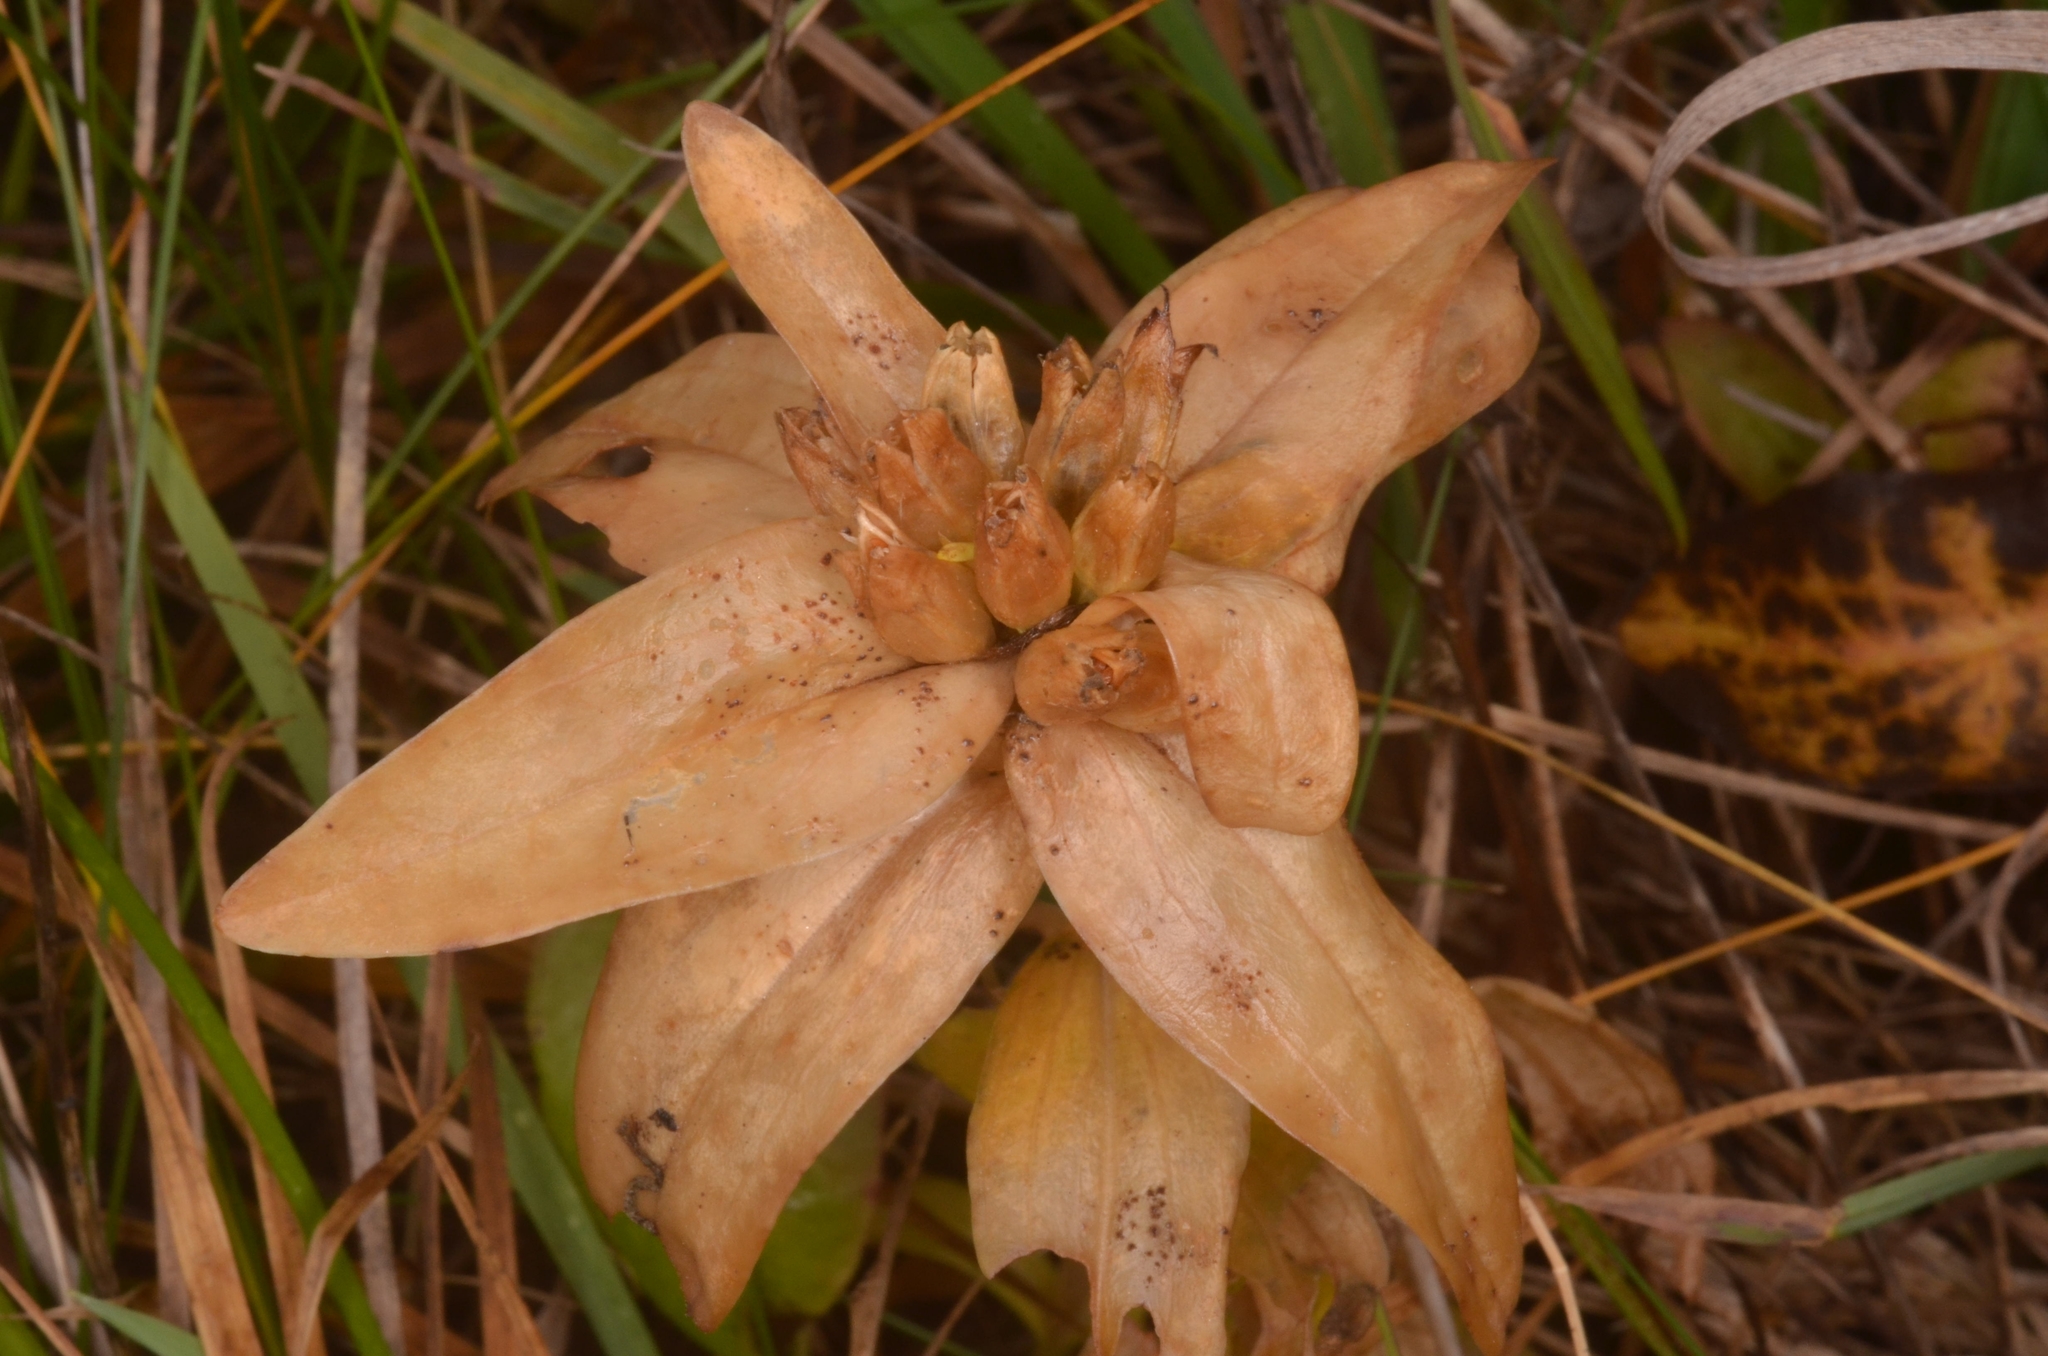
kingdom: Plantae
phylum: Tracheophyta
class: Magnoliopsida
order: Gentianales
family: Gentianaceae
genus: Gentiana
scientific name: Gentiana cruciata
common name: Cross gentian
